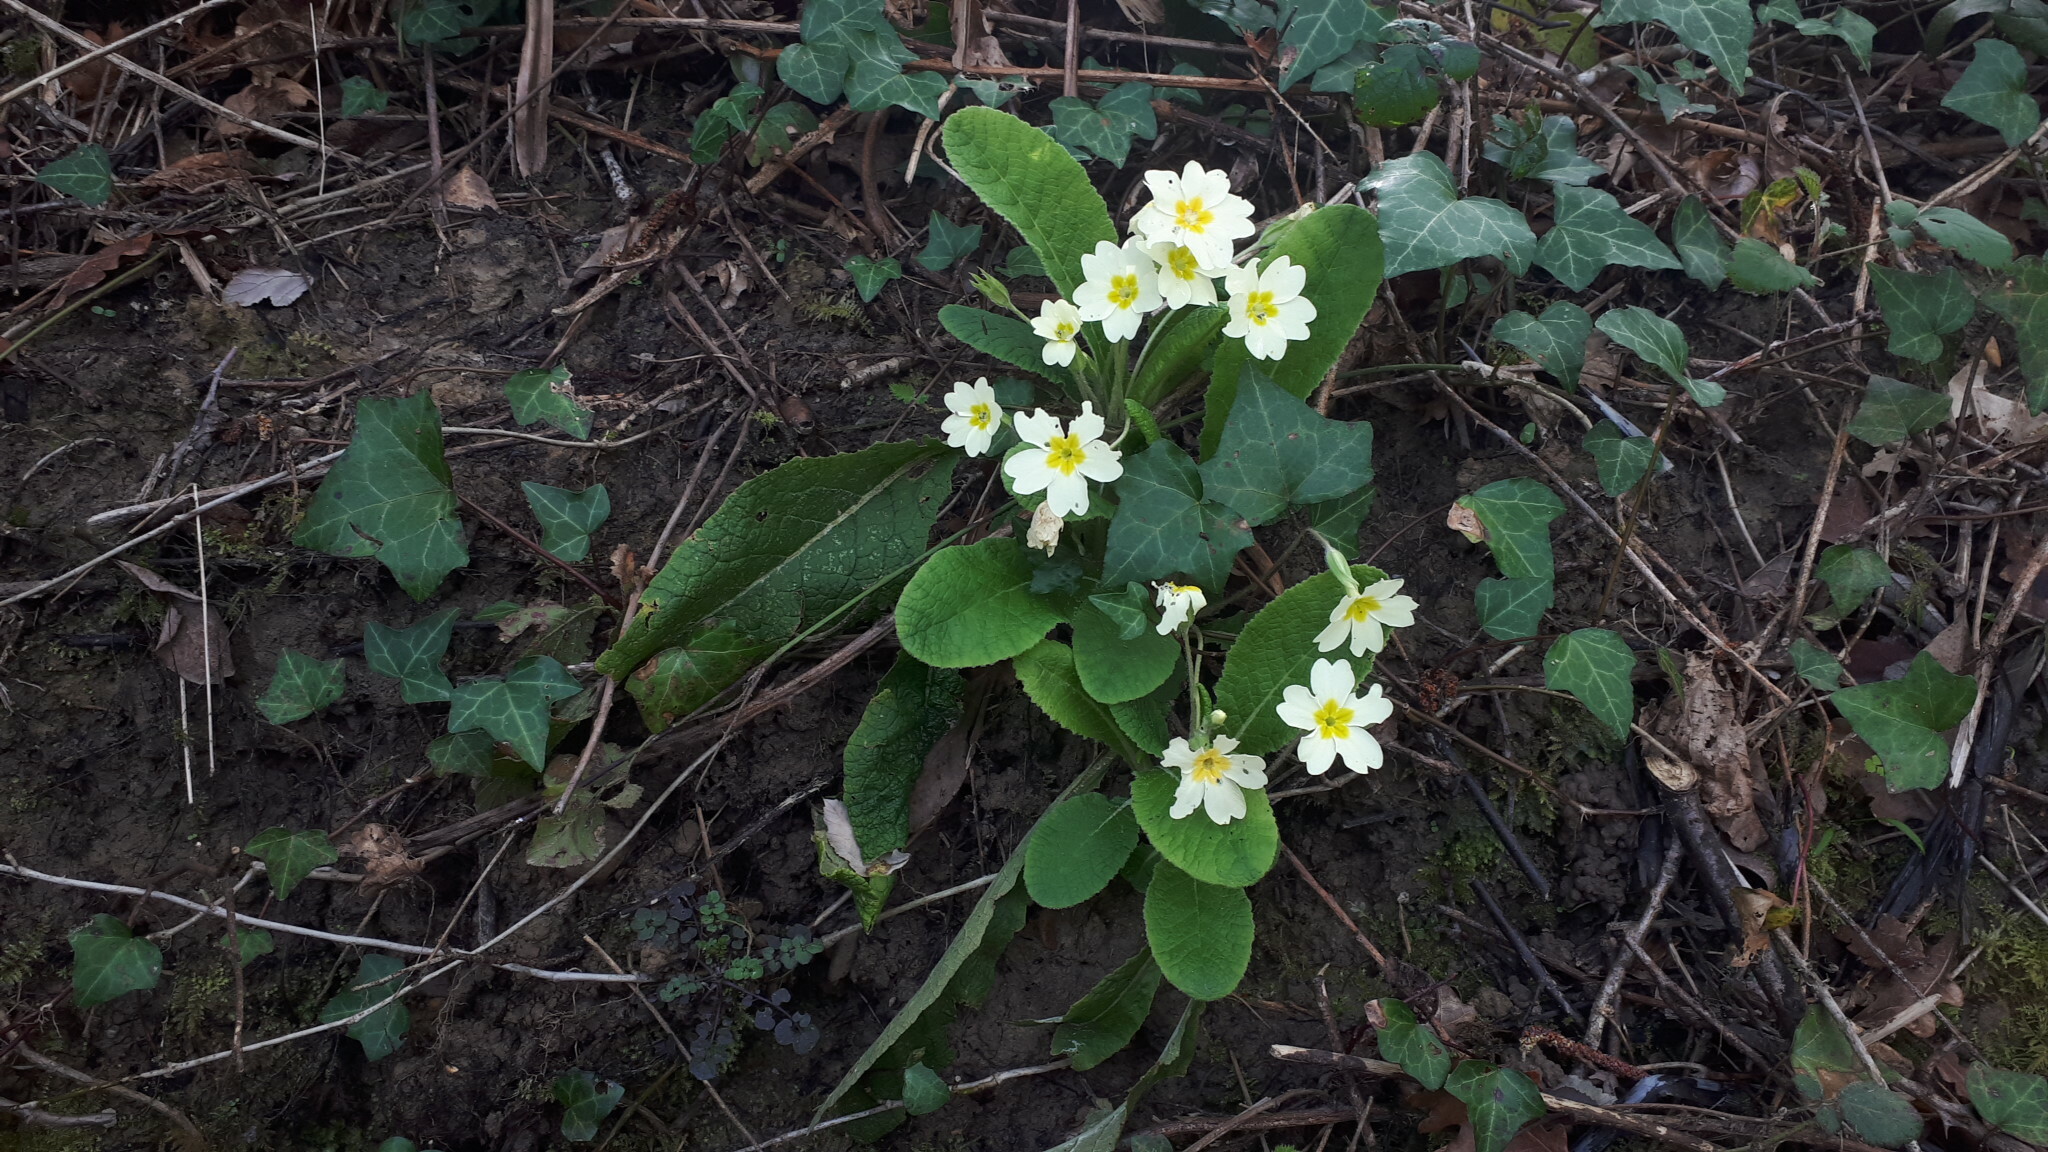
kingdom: Plantae
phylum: Tracheophyta
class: Magnoliopsida
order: Ericales
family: Primulaceae
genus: Primula
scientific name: Primula vulgaris
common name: Primrose
